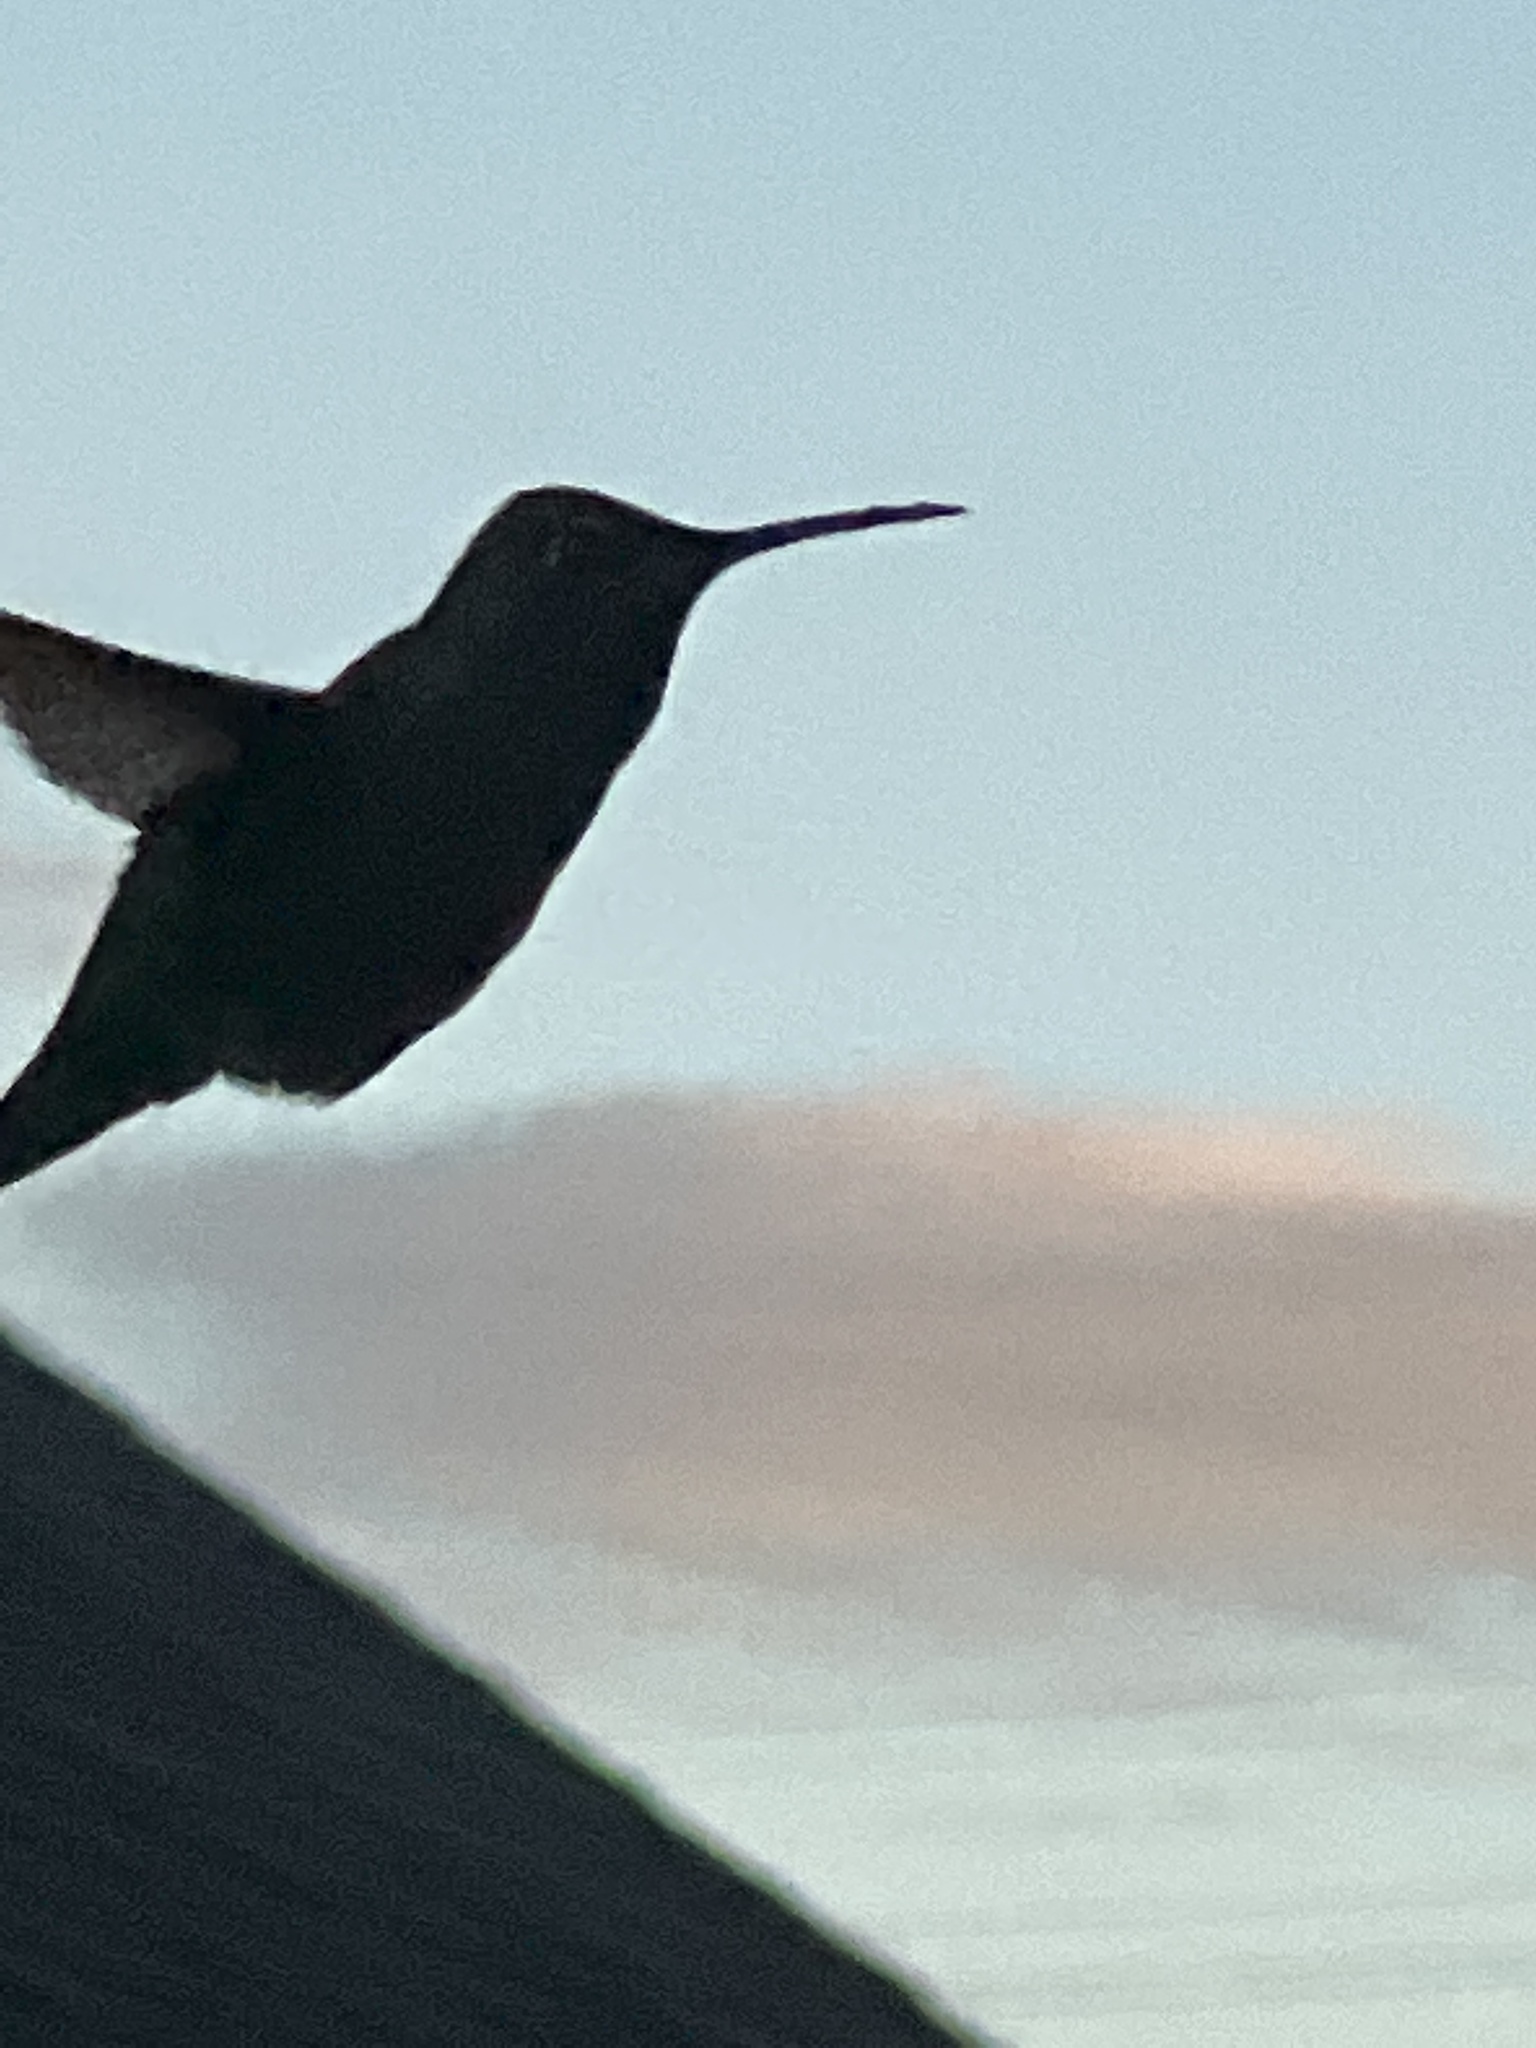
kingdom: Animalia
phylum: Chordata
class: Aves
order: Apodiformes
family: Trochilidae
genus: Calypte
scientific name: Calypte anna
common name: Anna's hummingbird
